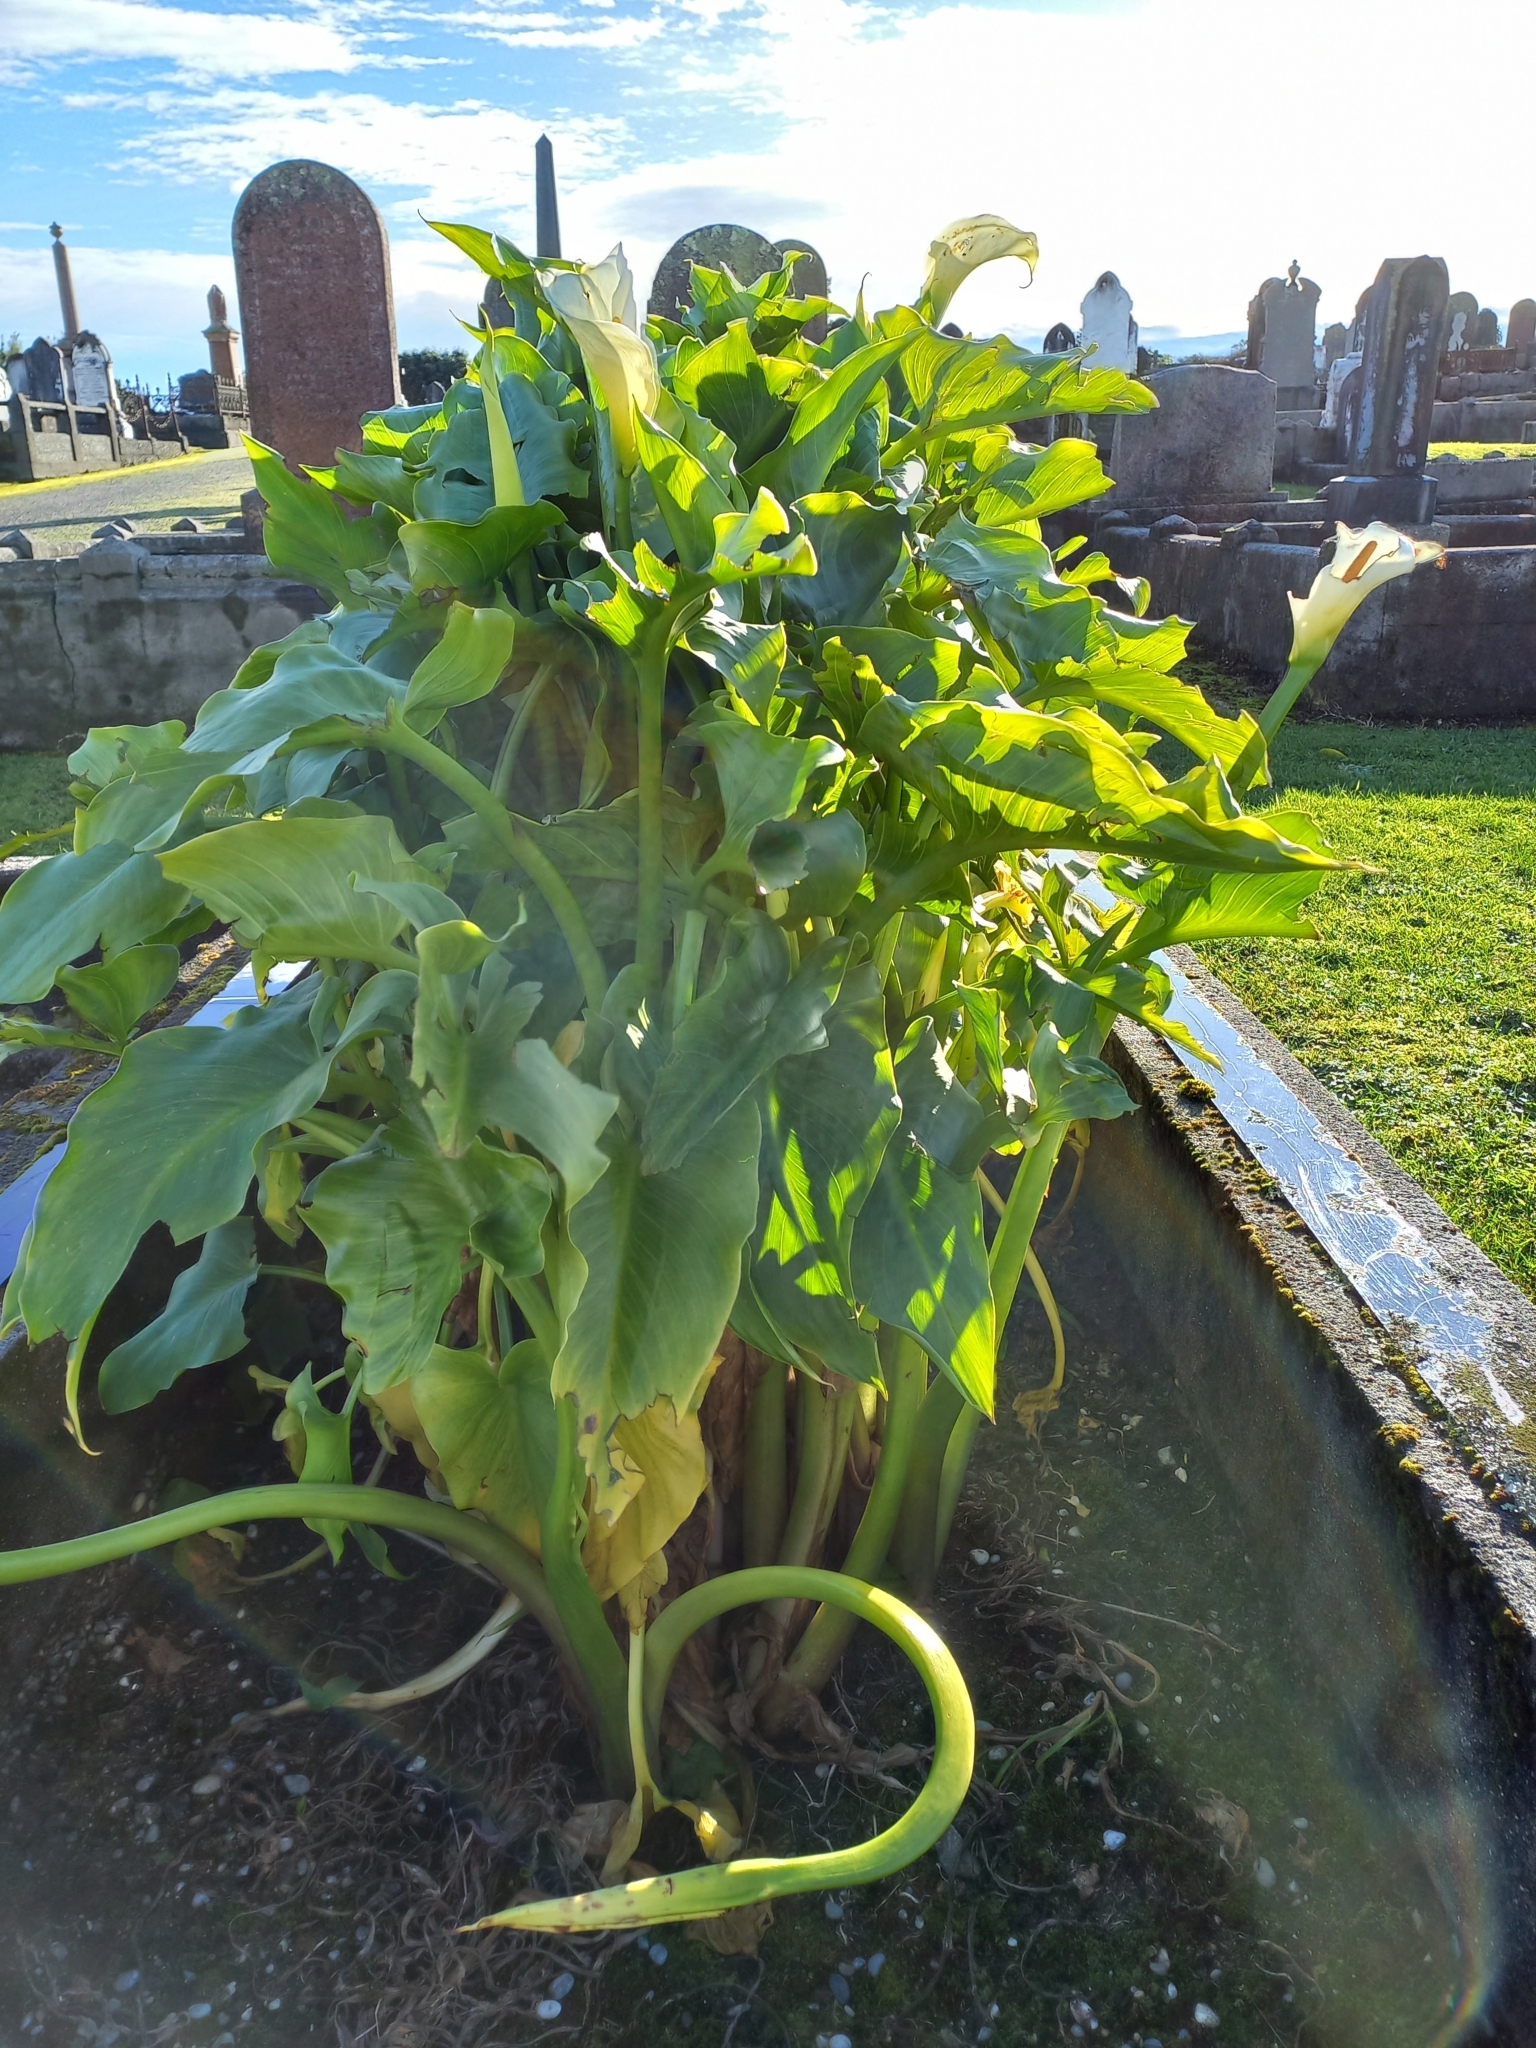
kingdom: Plantae
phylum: Tracheophyta
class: Liliopsida
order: Alismatales
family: Araceae
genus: Zantedeschia
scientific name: Zantedeschia aethiopica
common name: Altar-lily
